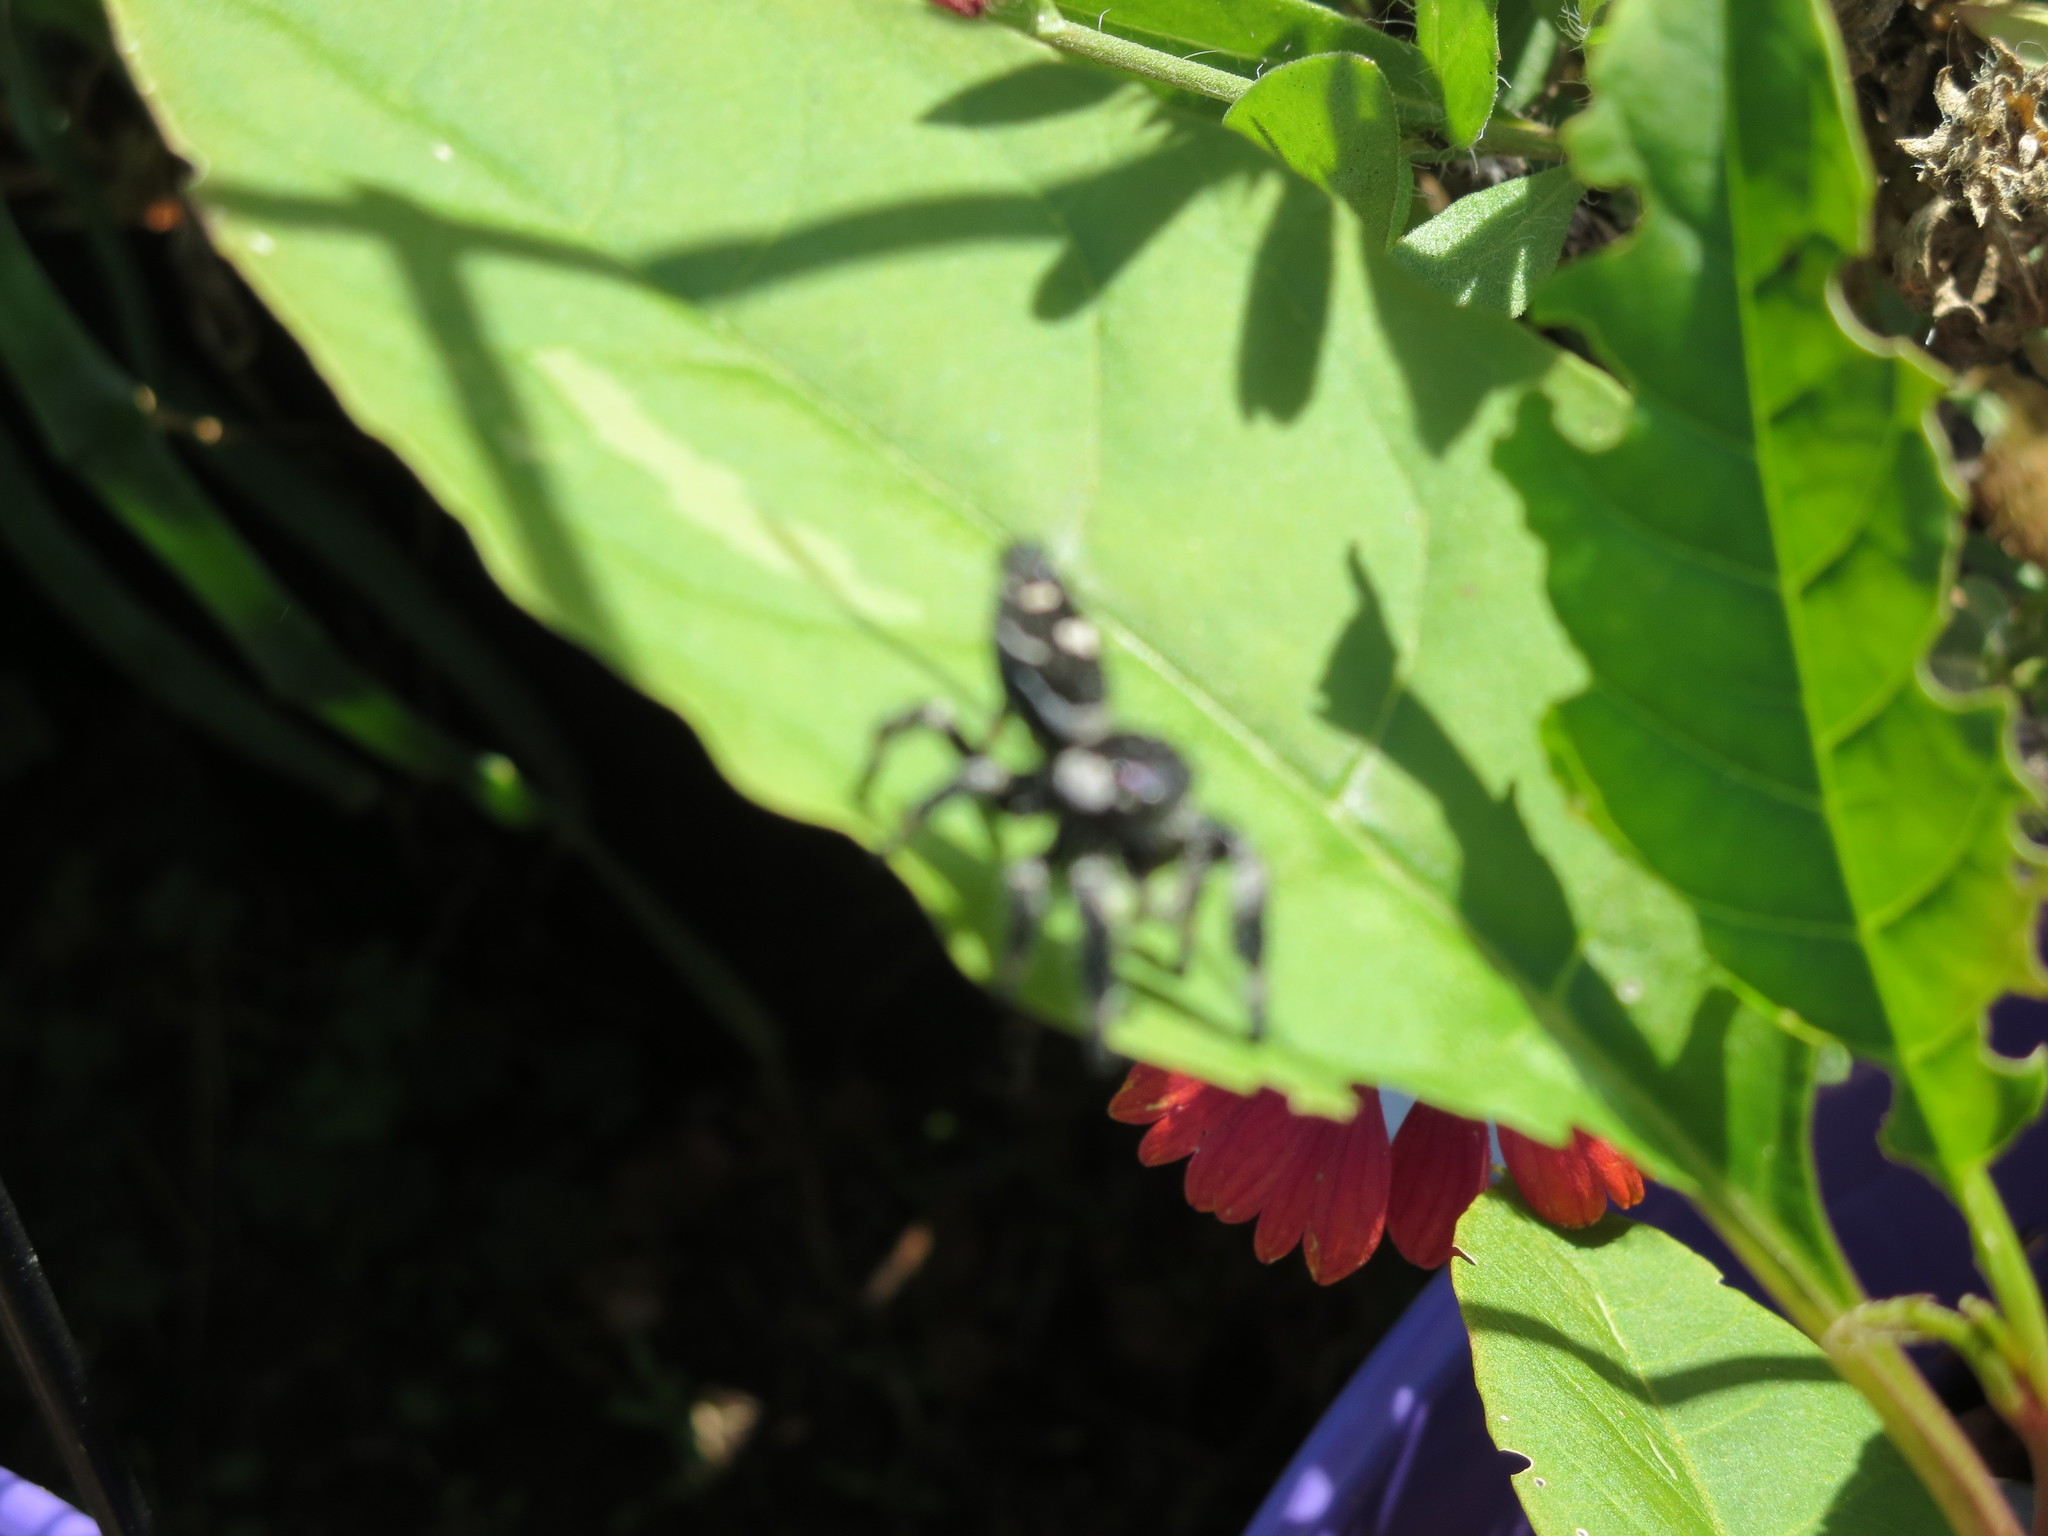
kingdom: Animalia
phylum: Arthropoda
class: Arachnida
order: Araneae
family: Salticidae
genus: Phidippus
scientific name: Phidippus regius
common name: Regal jumper
